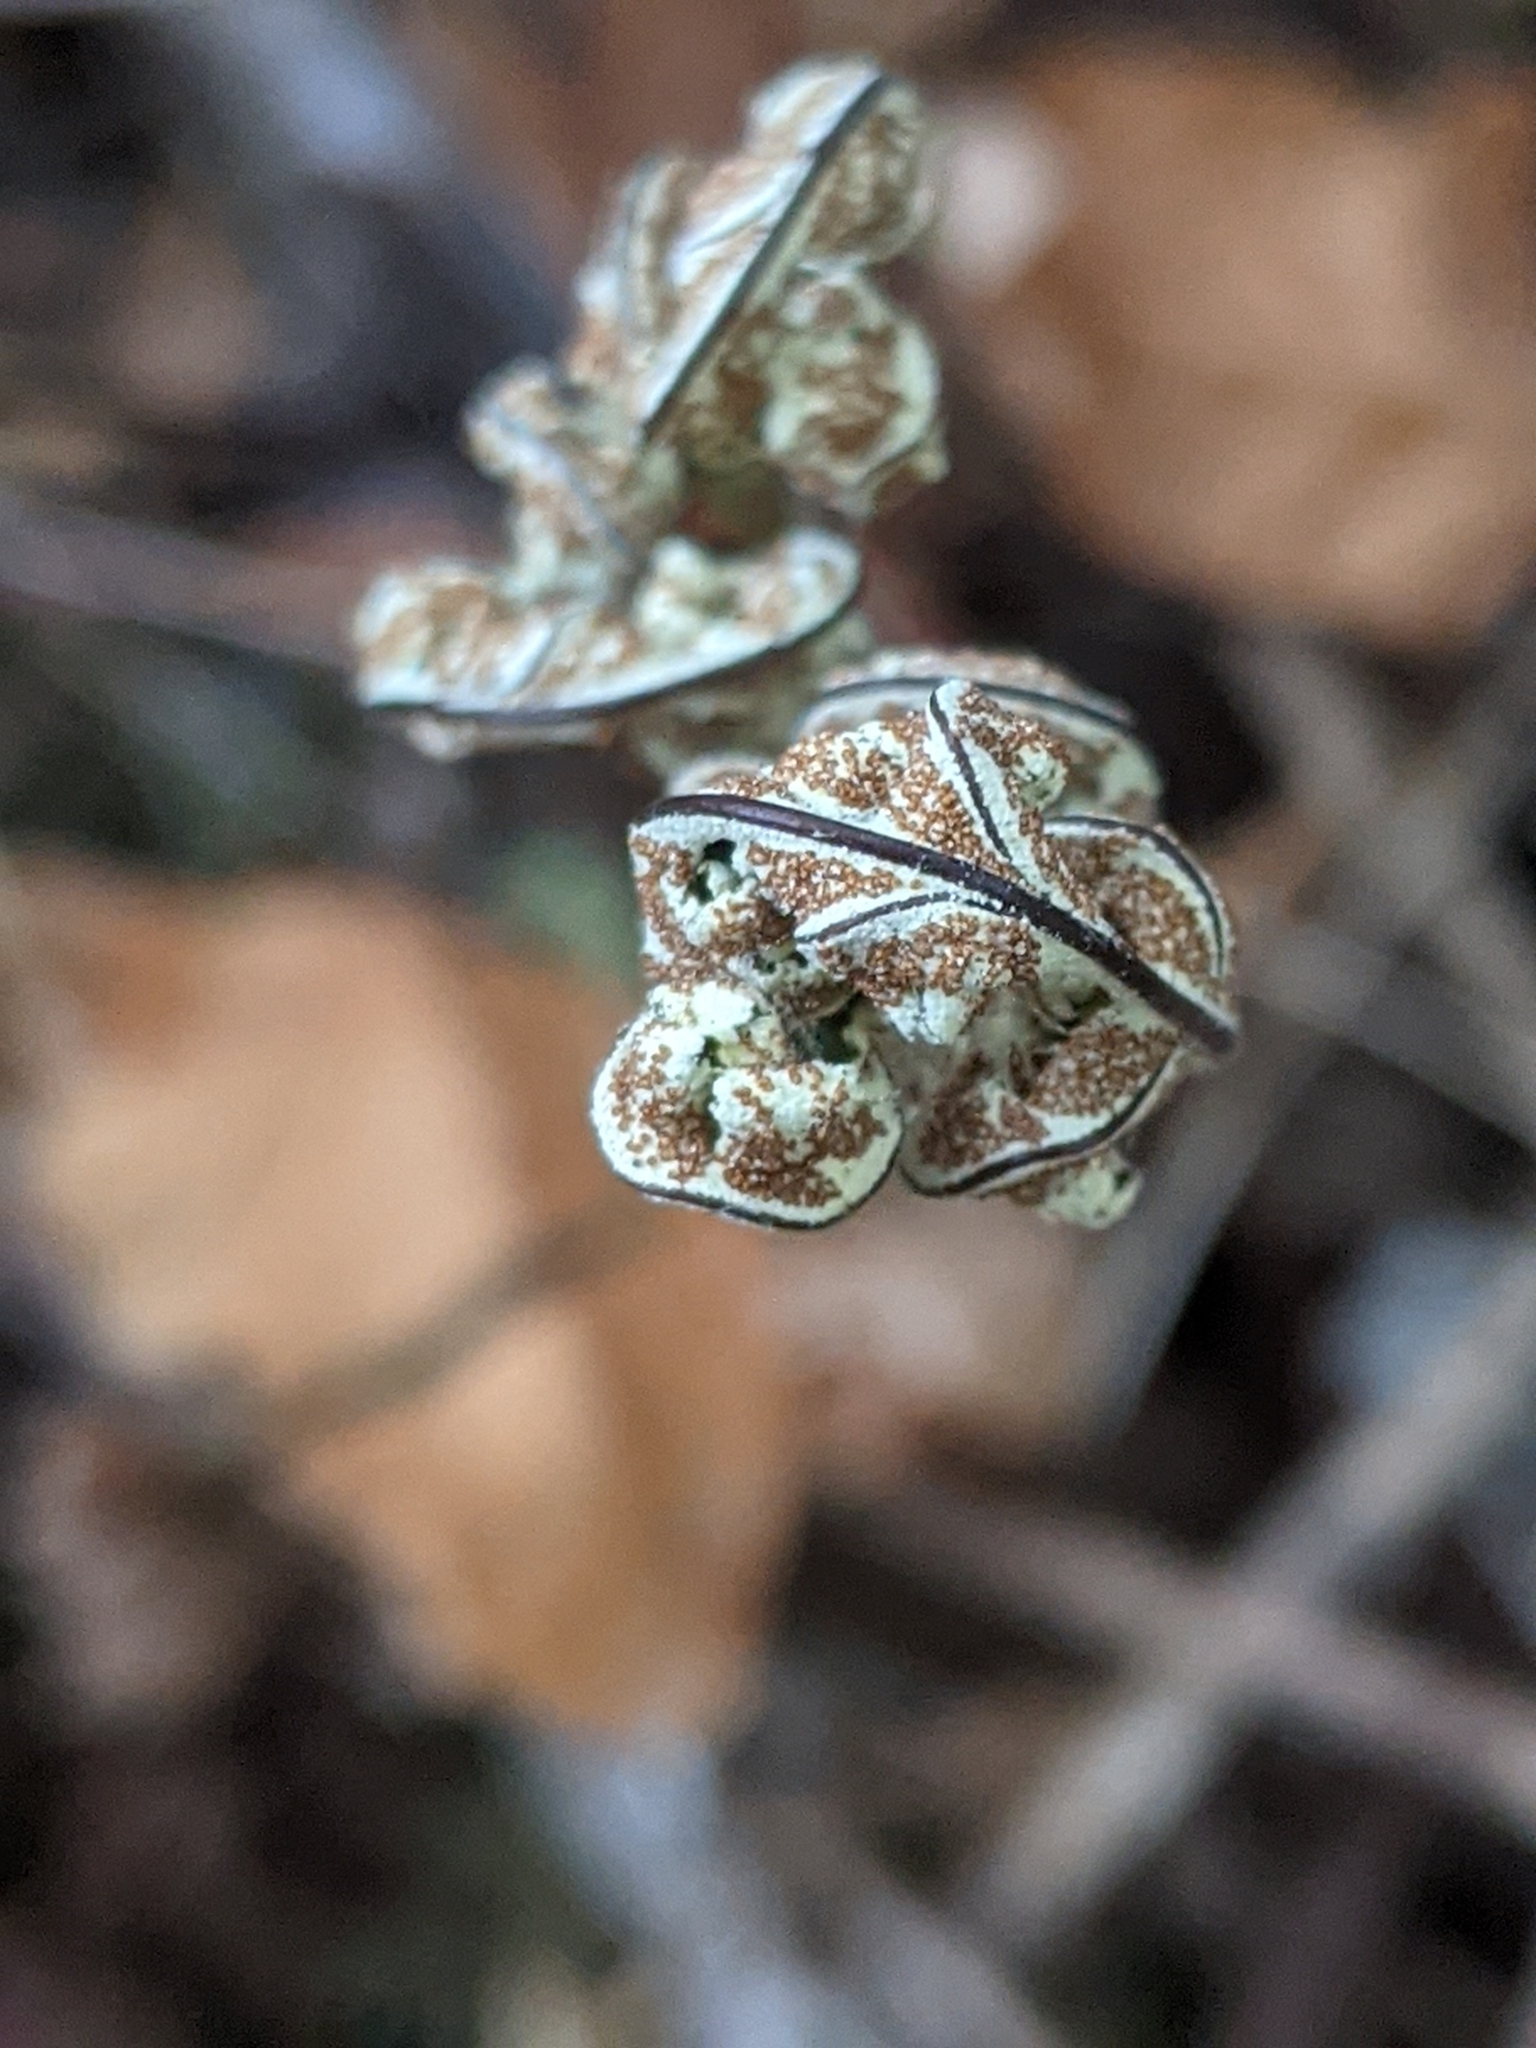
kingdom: Plantae
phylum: Tracheophyta
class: Polypodiopsida
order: Polypodiales
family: Pteridaceae
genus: Pentagramma
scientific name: Pentagramma triangularis
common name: Gold fern
